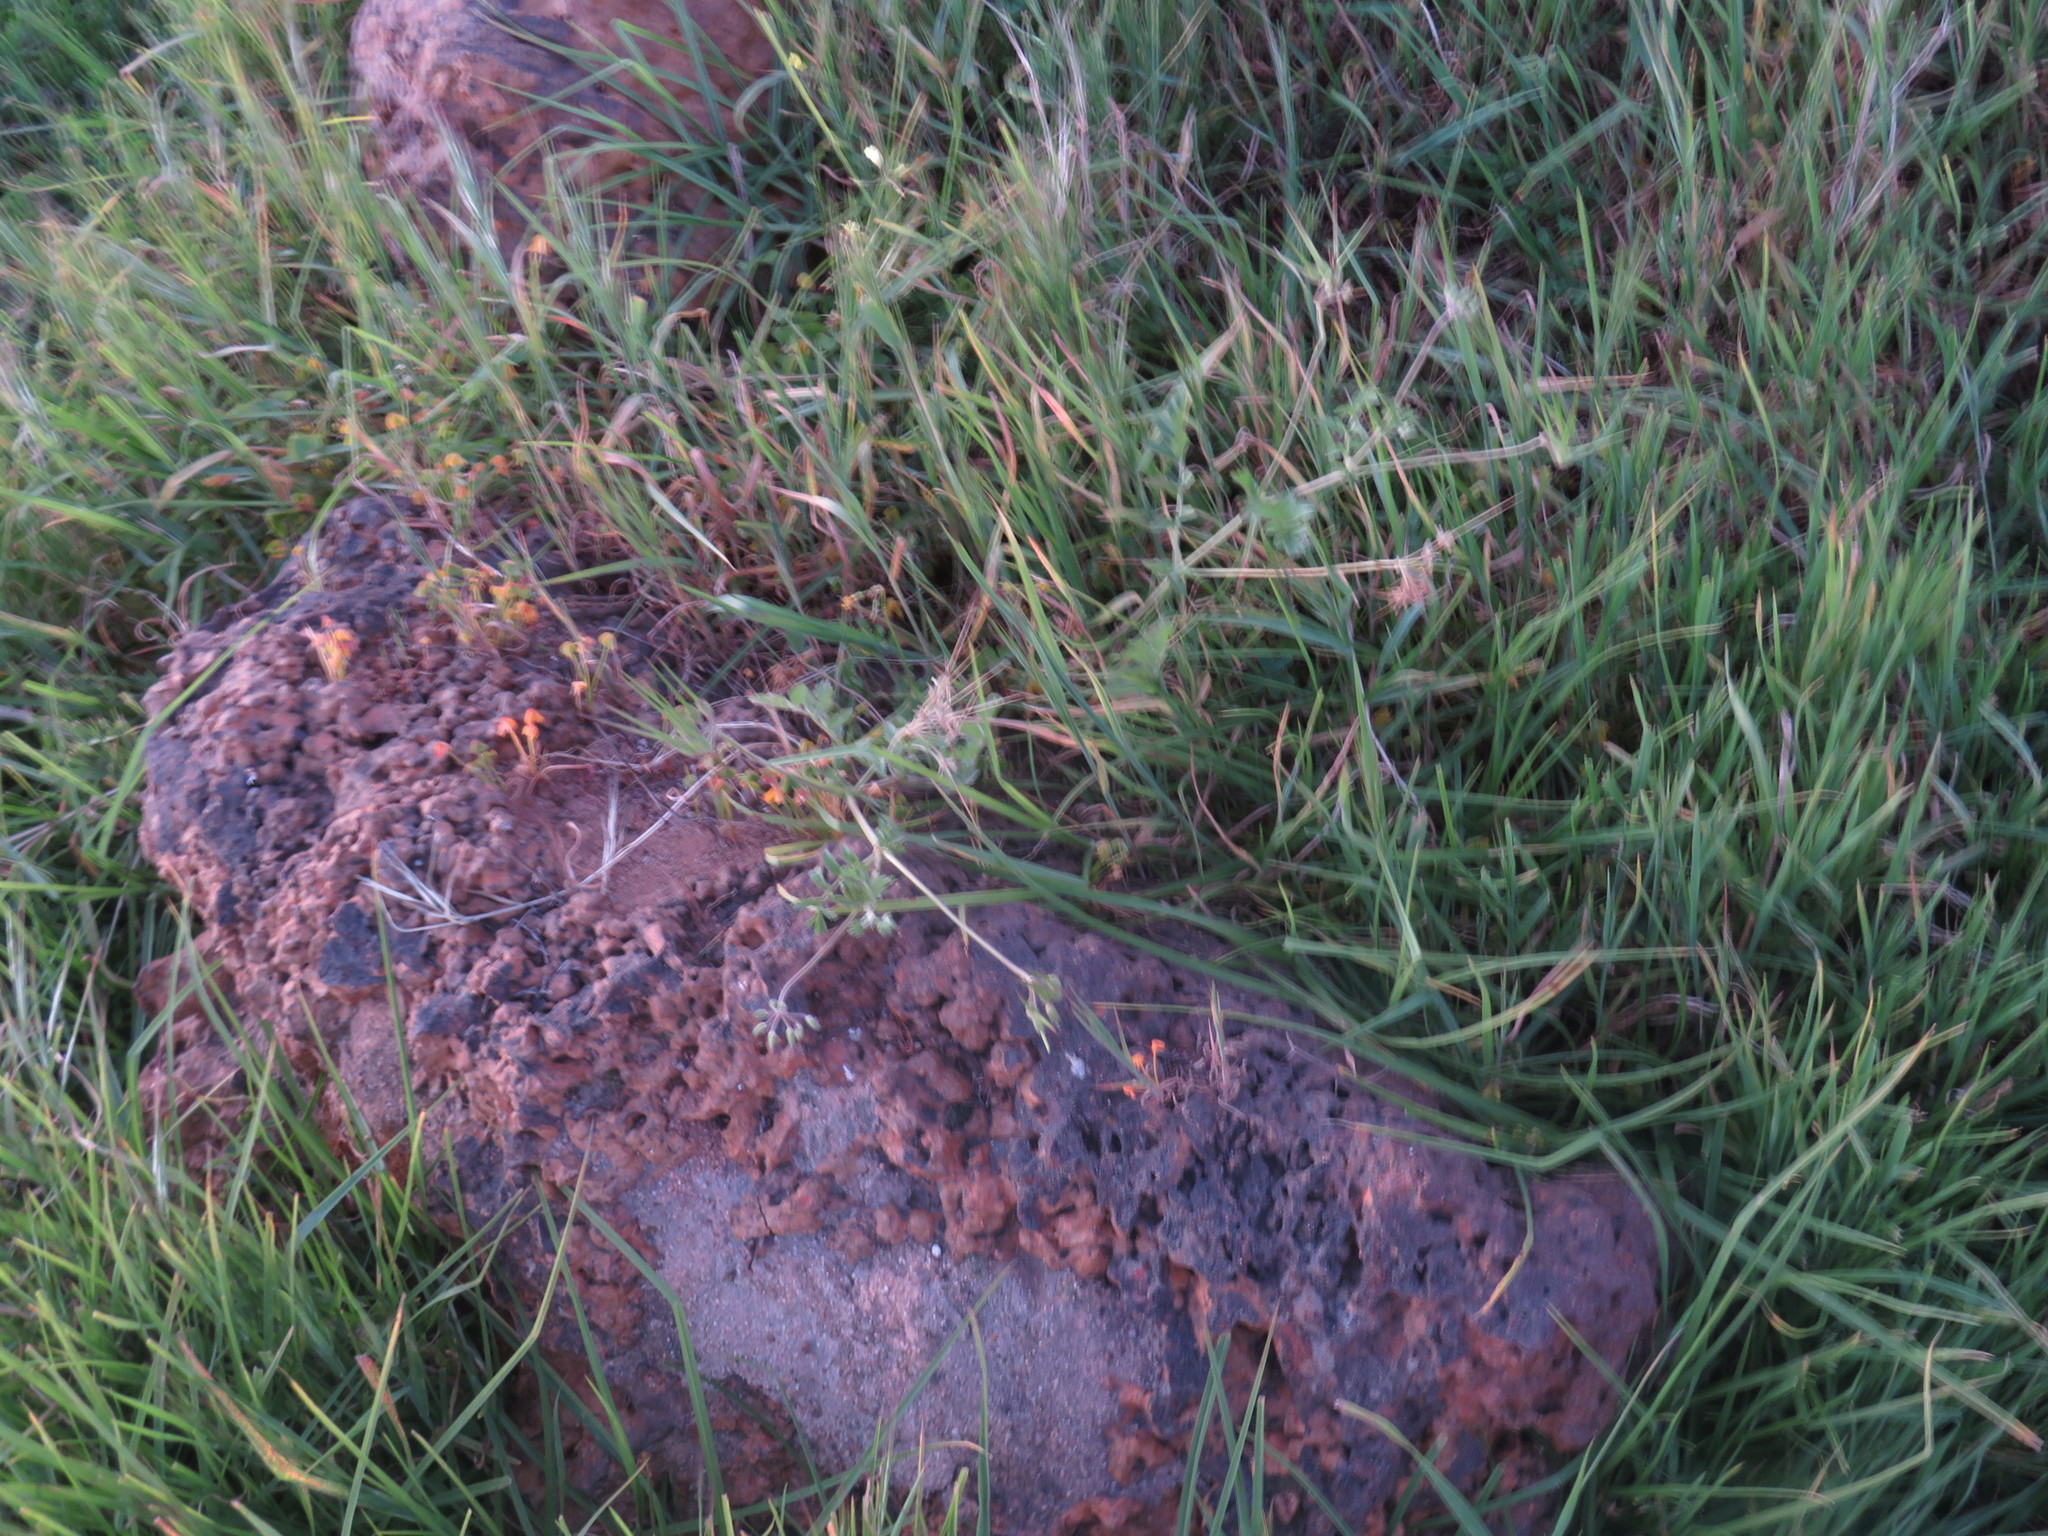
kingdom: Plantae
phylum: Tracheophyta
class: Magnoliopsida
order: Geraniales
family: Geraniaceae
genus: Erodium
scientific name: Erodium moschatum
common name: Musk stork's-bill
